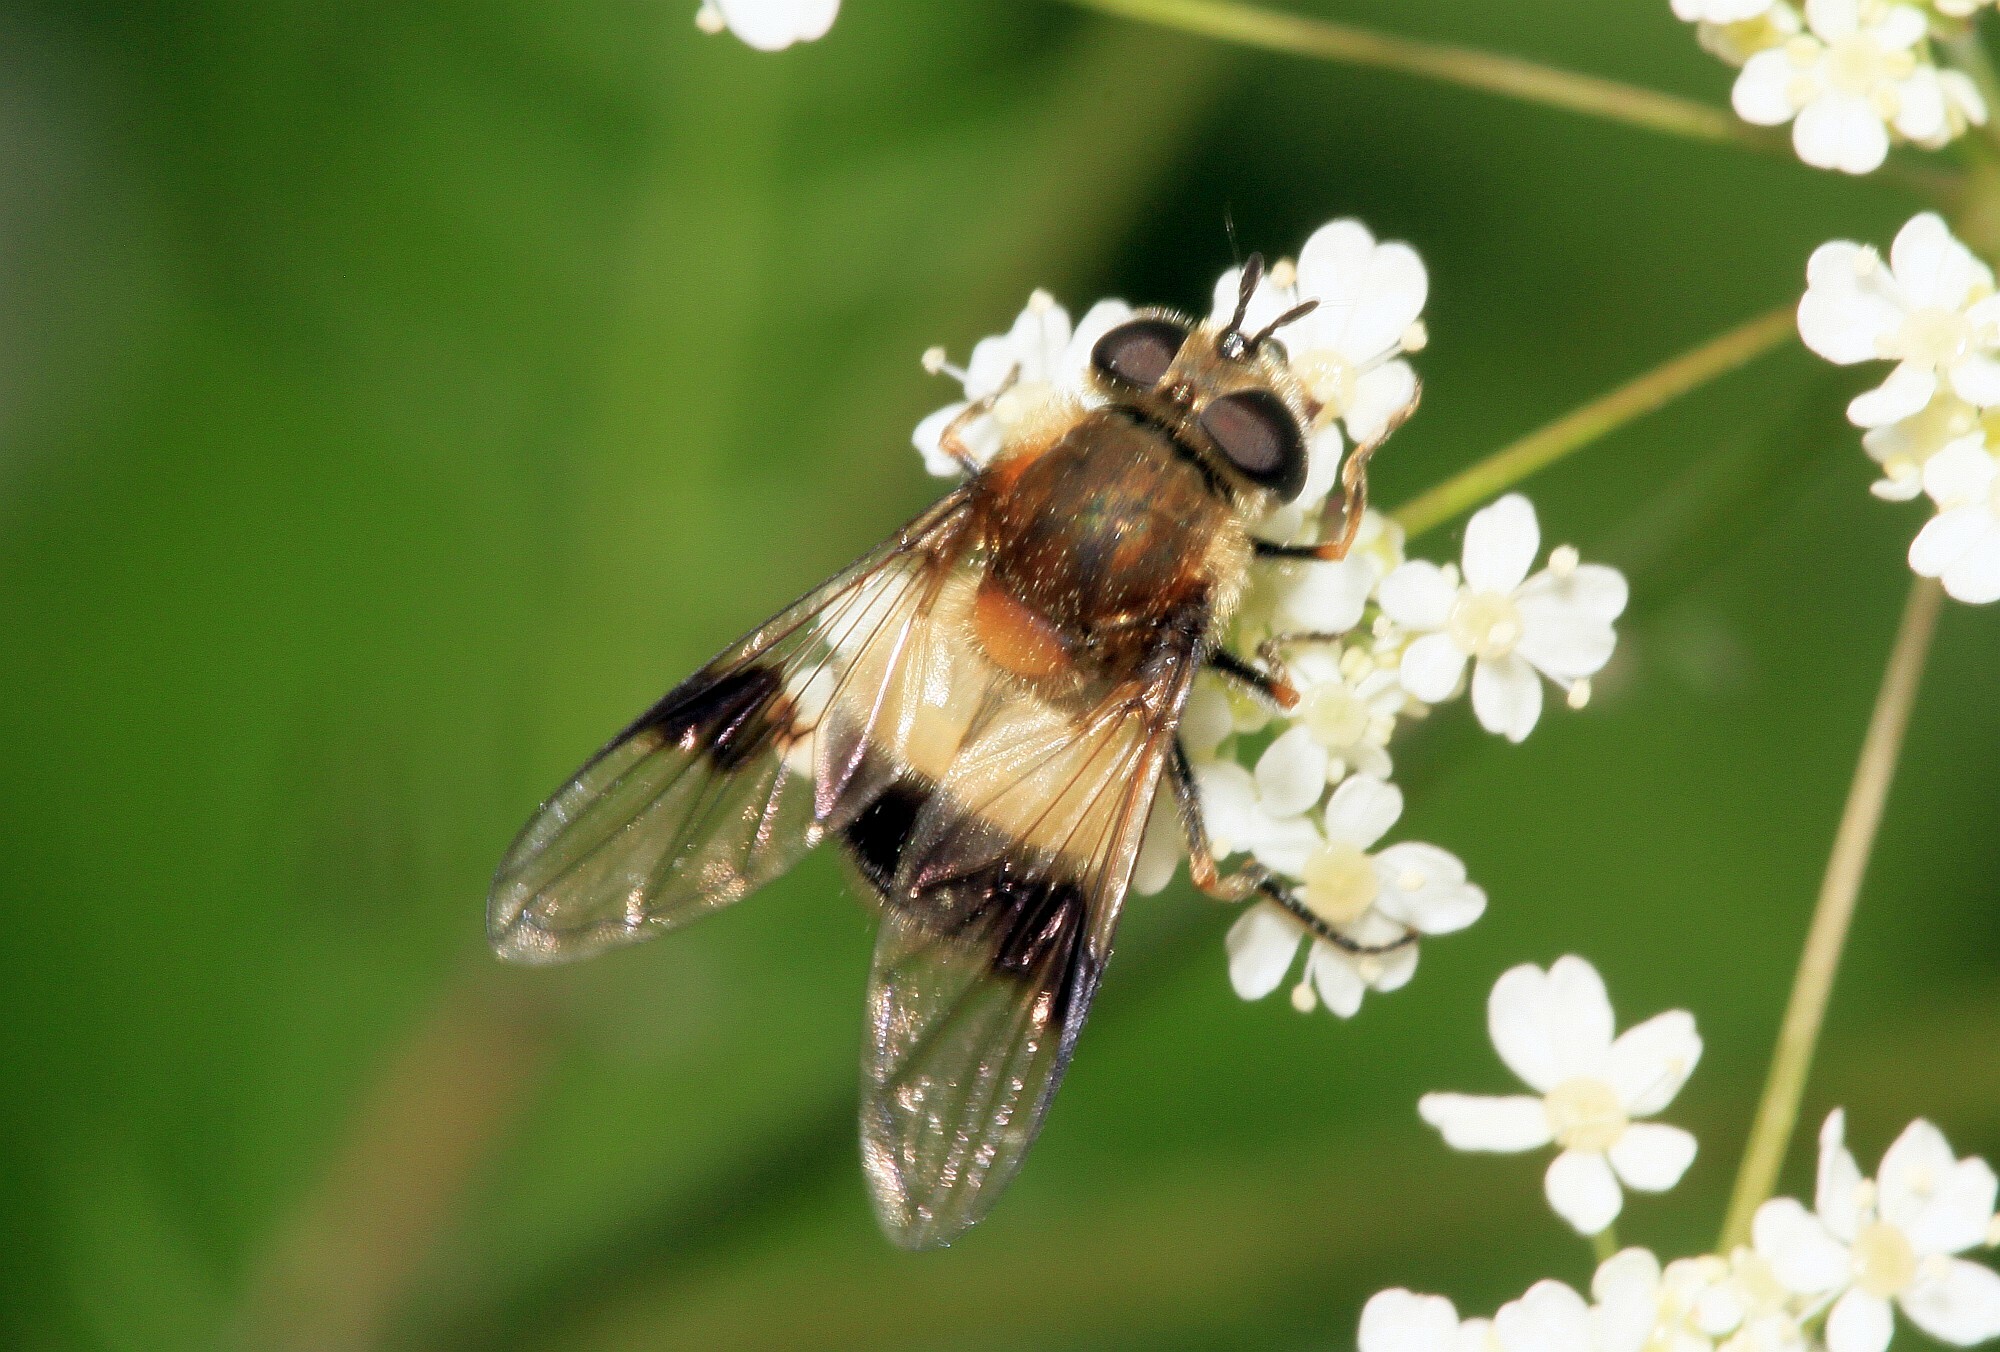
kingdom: Animalia
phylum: Arthropoda
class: Insecta
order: Diptera
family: Syrphidae
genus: Leucozona
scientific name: Leucozona lucorum
